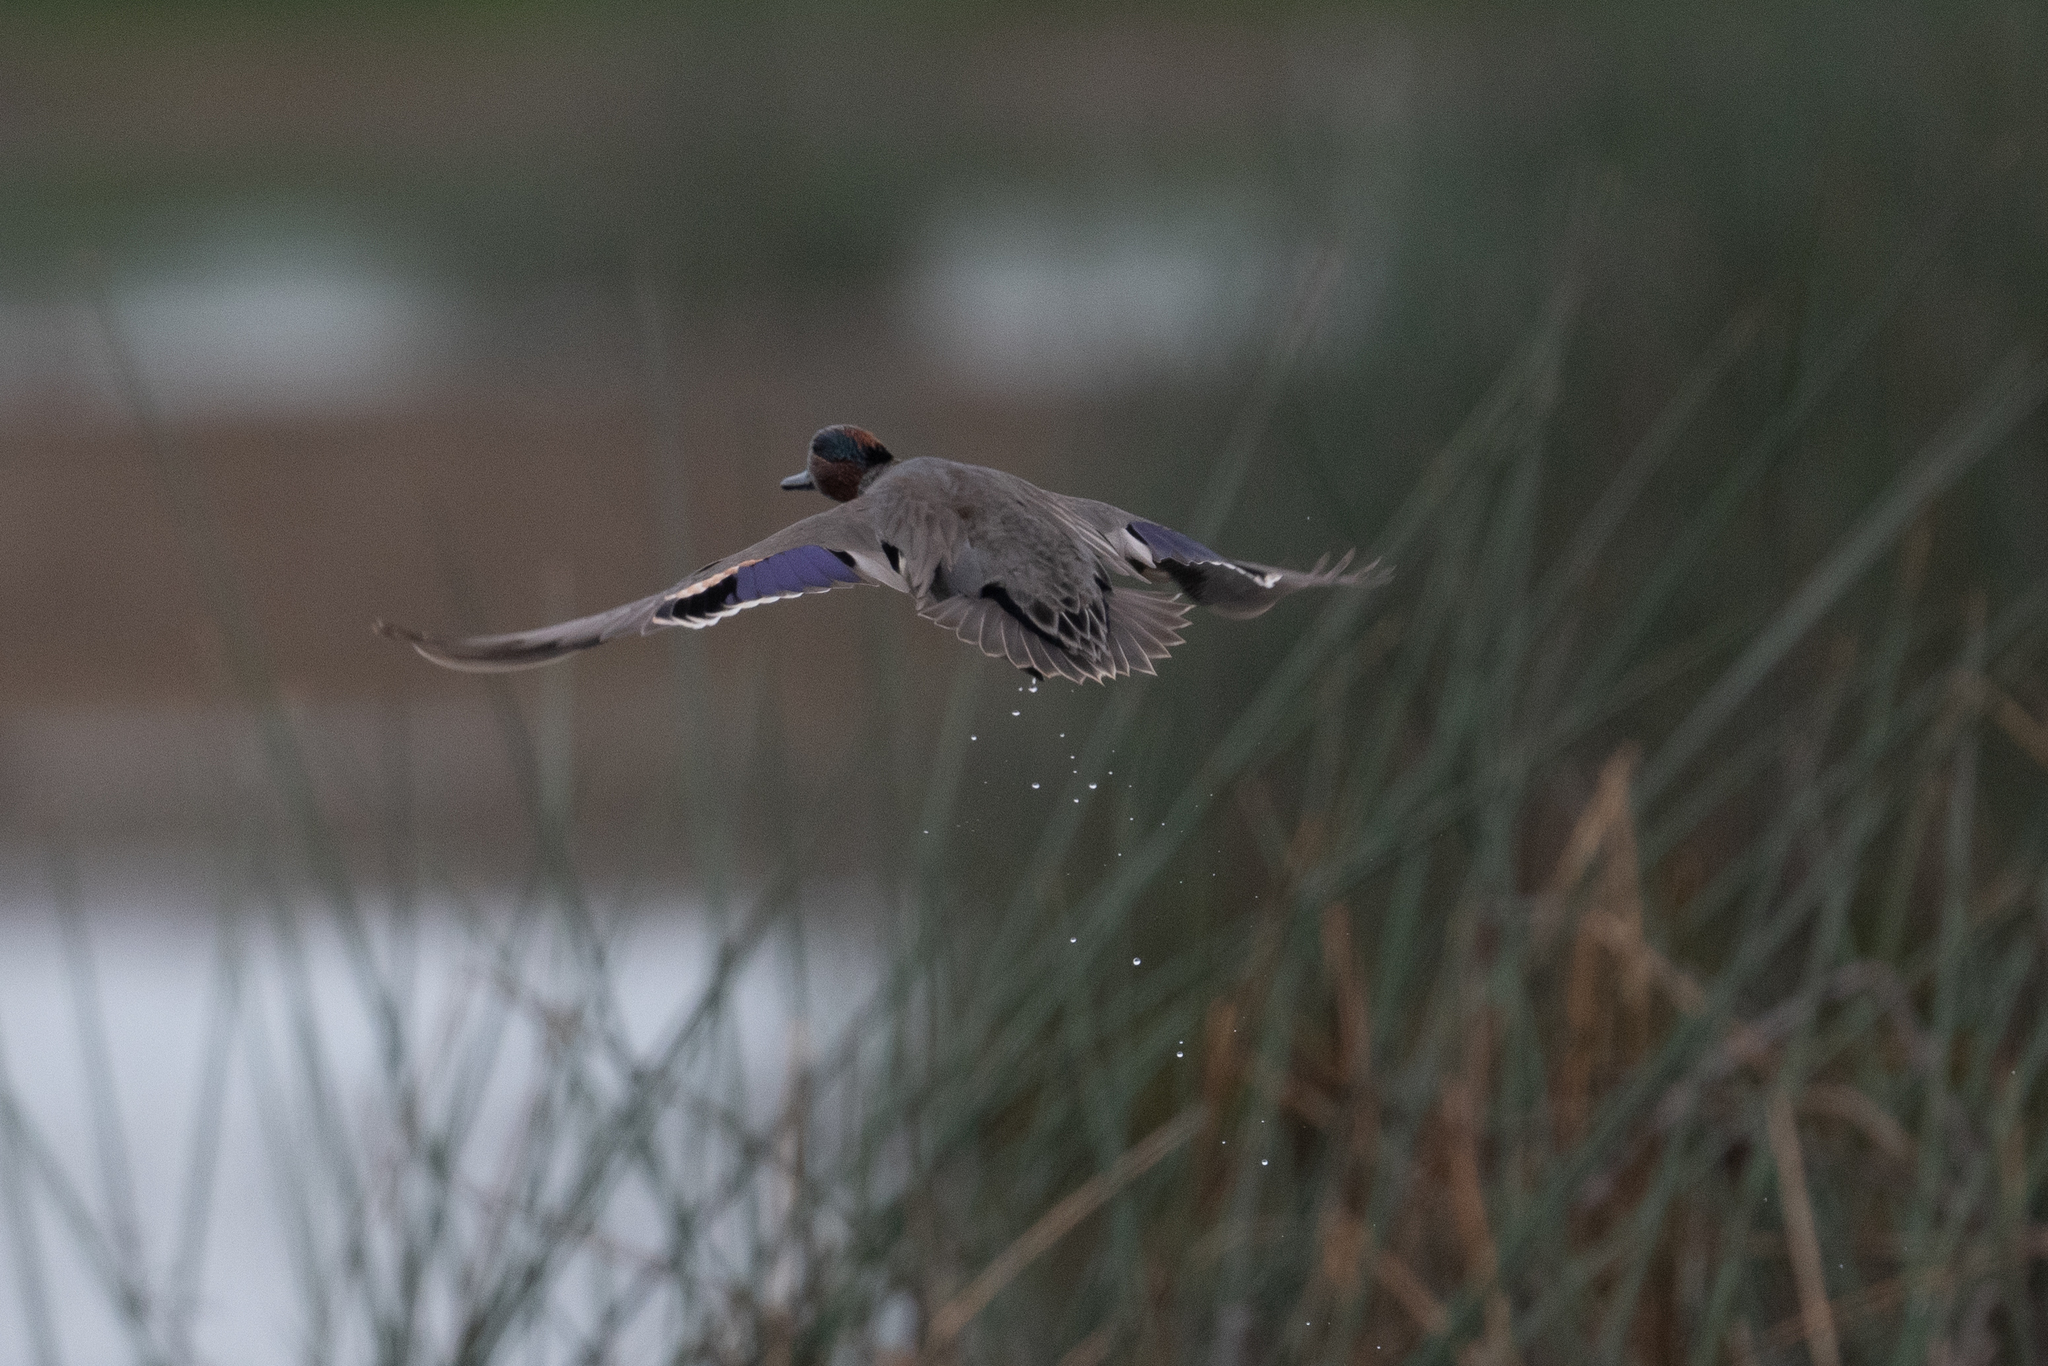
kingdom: Animalia
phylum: Chordata
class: Aves
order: Anseriformes
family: Anatidae
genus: Anas
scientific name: Anas crecca
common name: Eurasian teal
